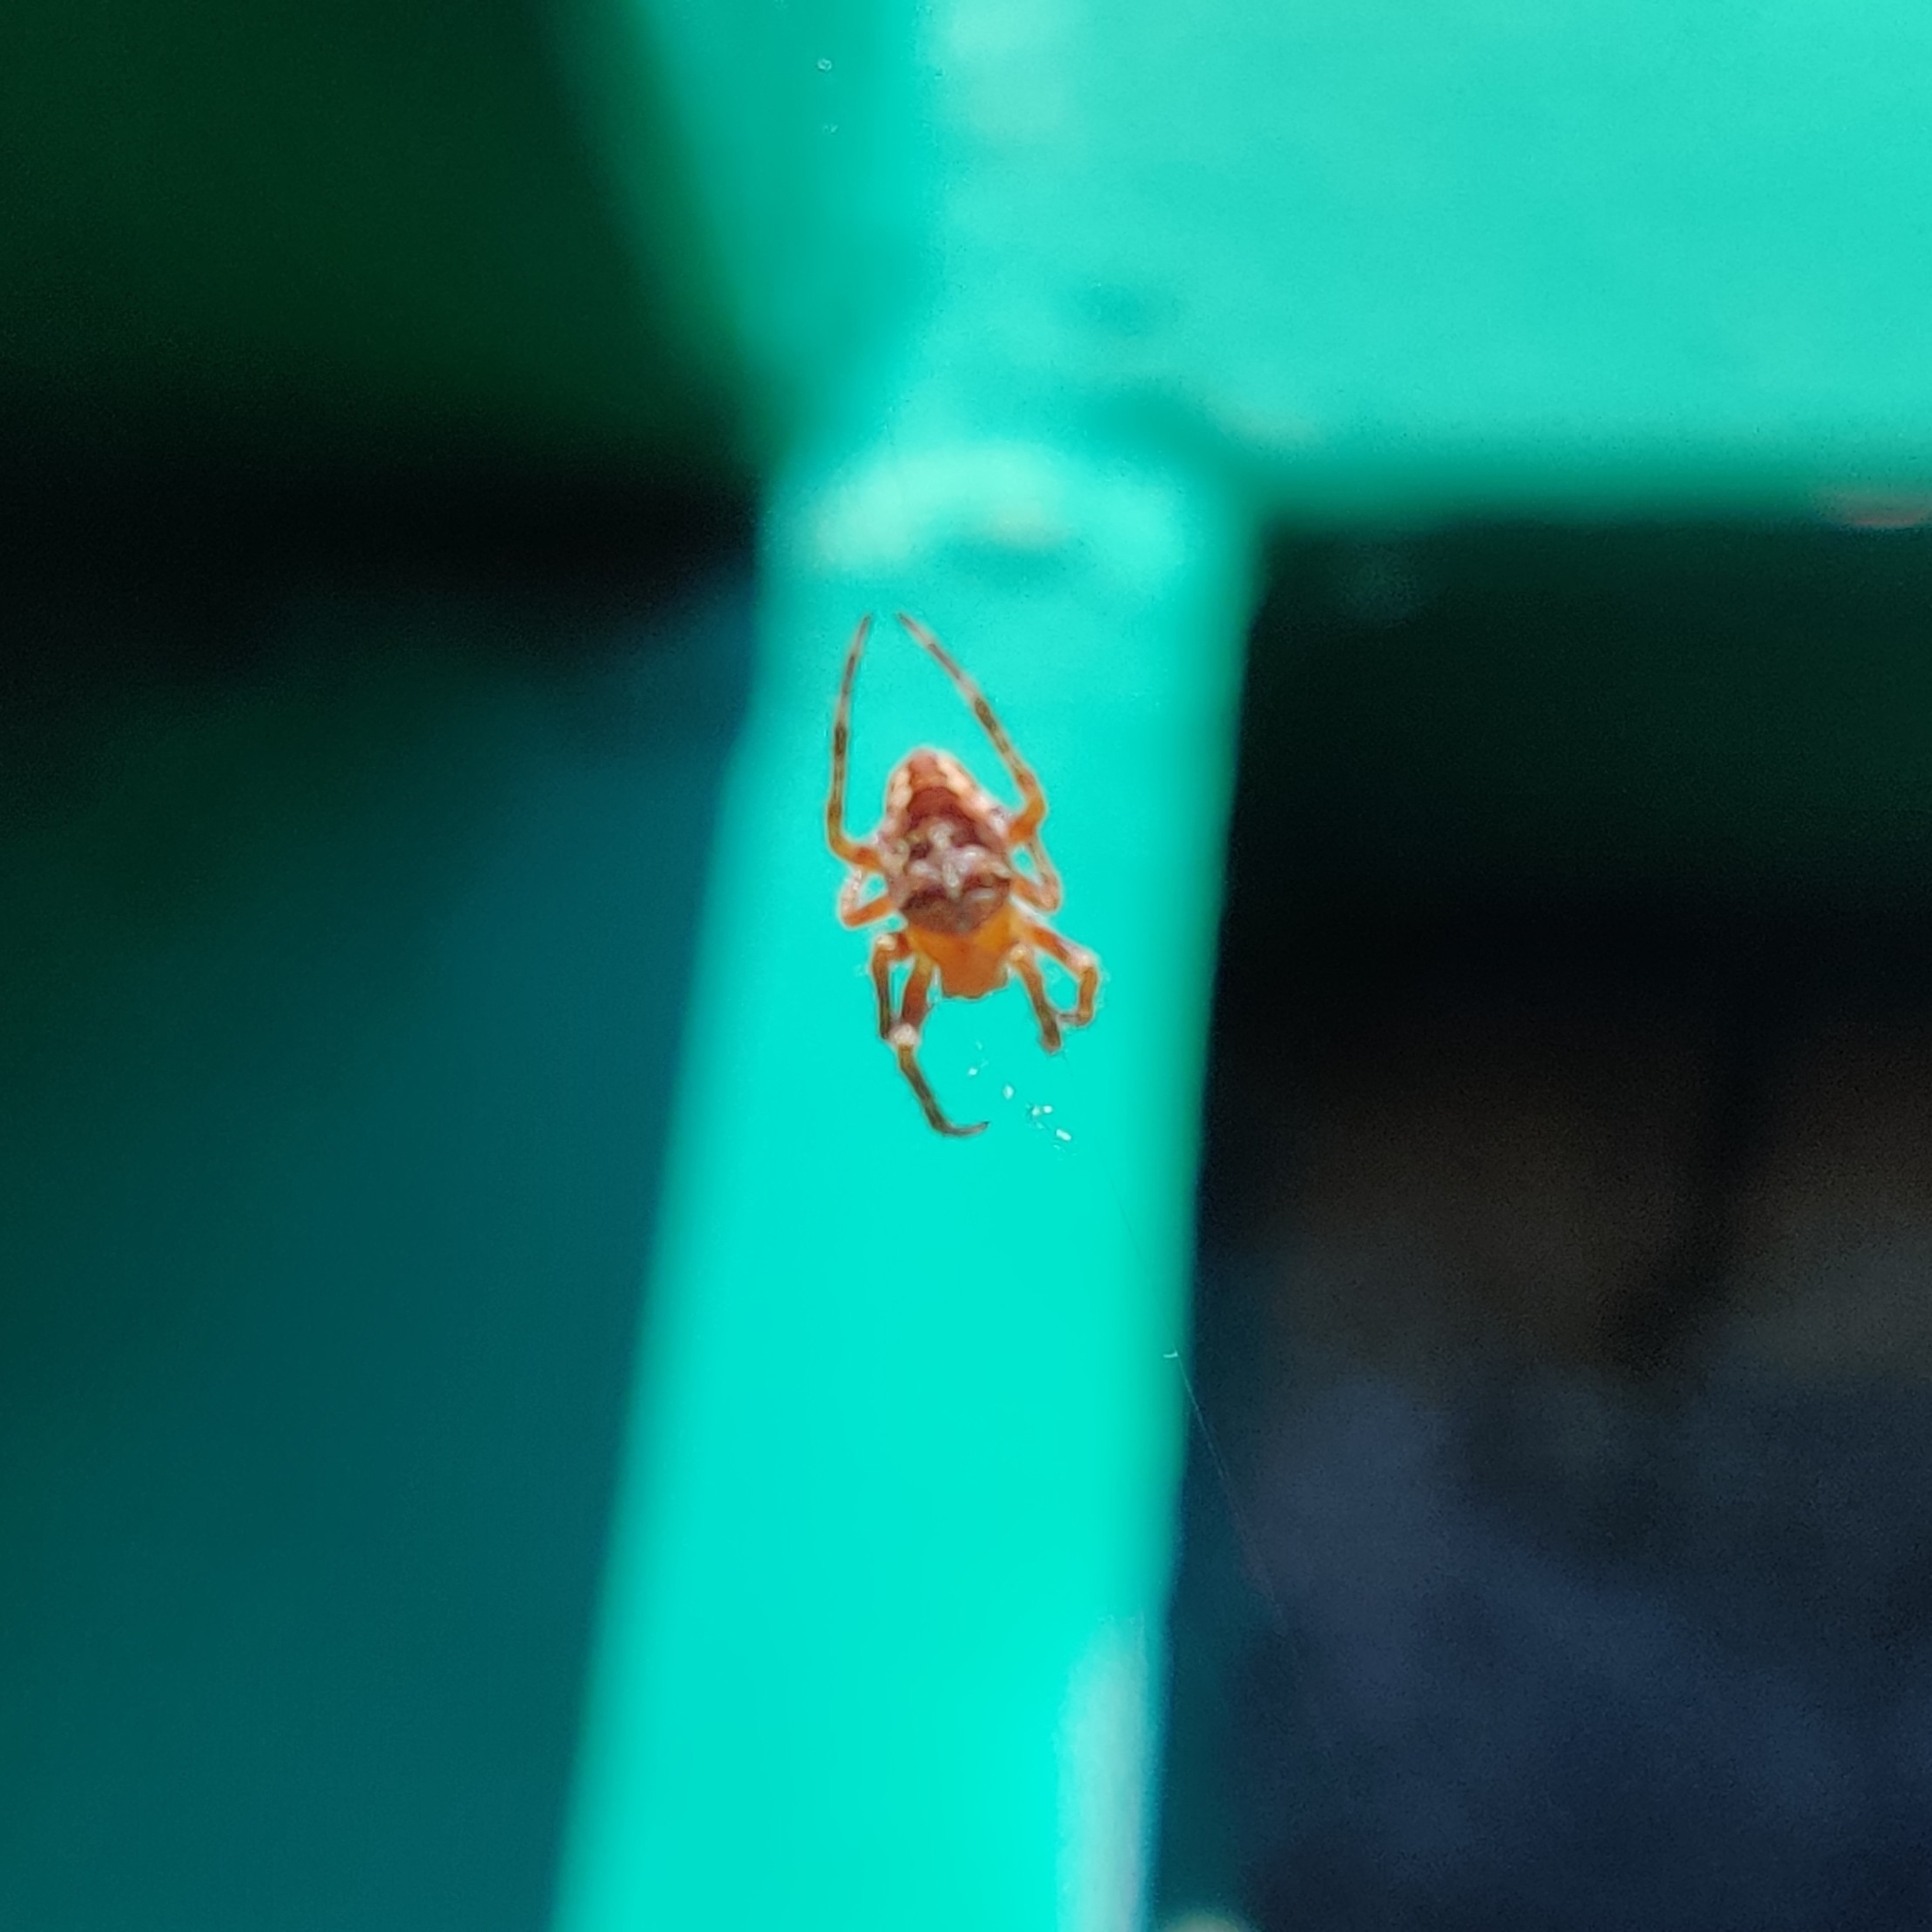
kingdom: Animalia
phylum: Arthropoda
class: Arachnida
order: Araneae
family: Araneidae
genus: Araneus
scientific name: Araneus diadematus
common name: Cross orbweaver
